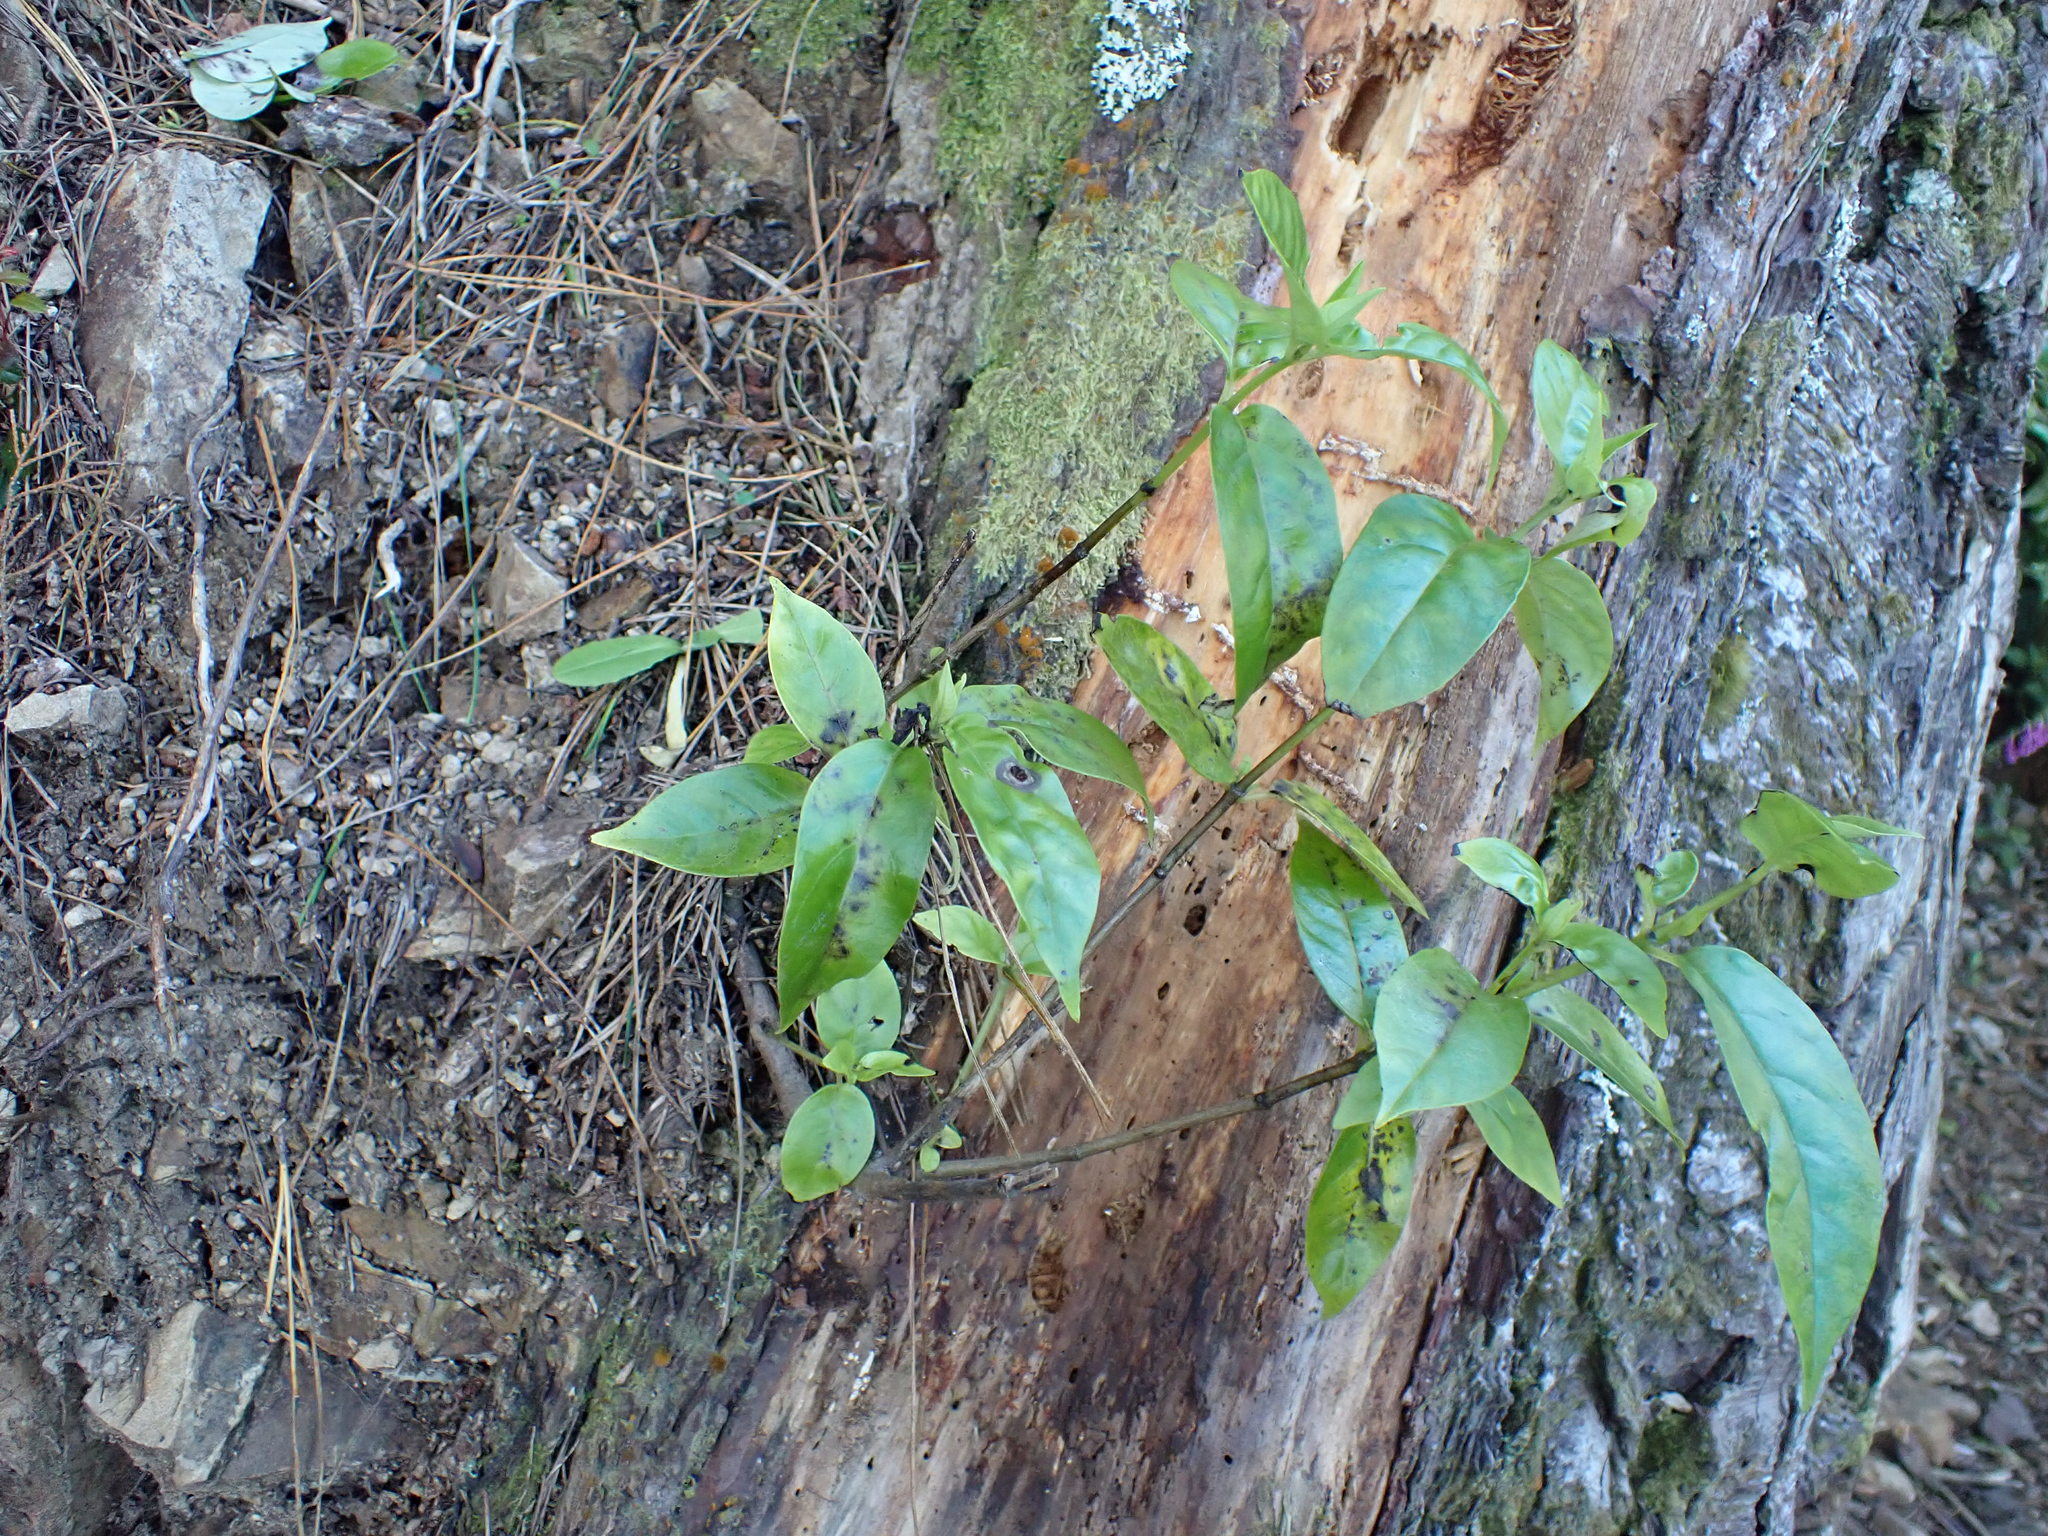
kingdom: Plantae
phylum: Tracheophyta
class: Magnoliopsida
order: Gentianales
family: Loganiaceae
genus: Geniostoma
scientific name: Geniostoma ligustrifolium
